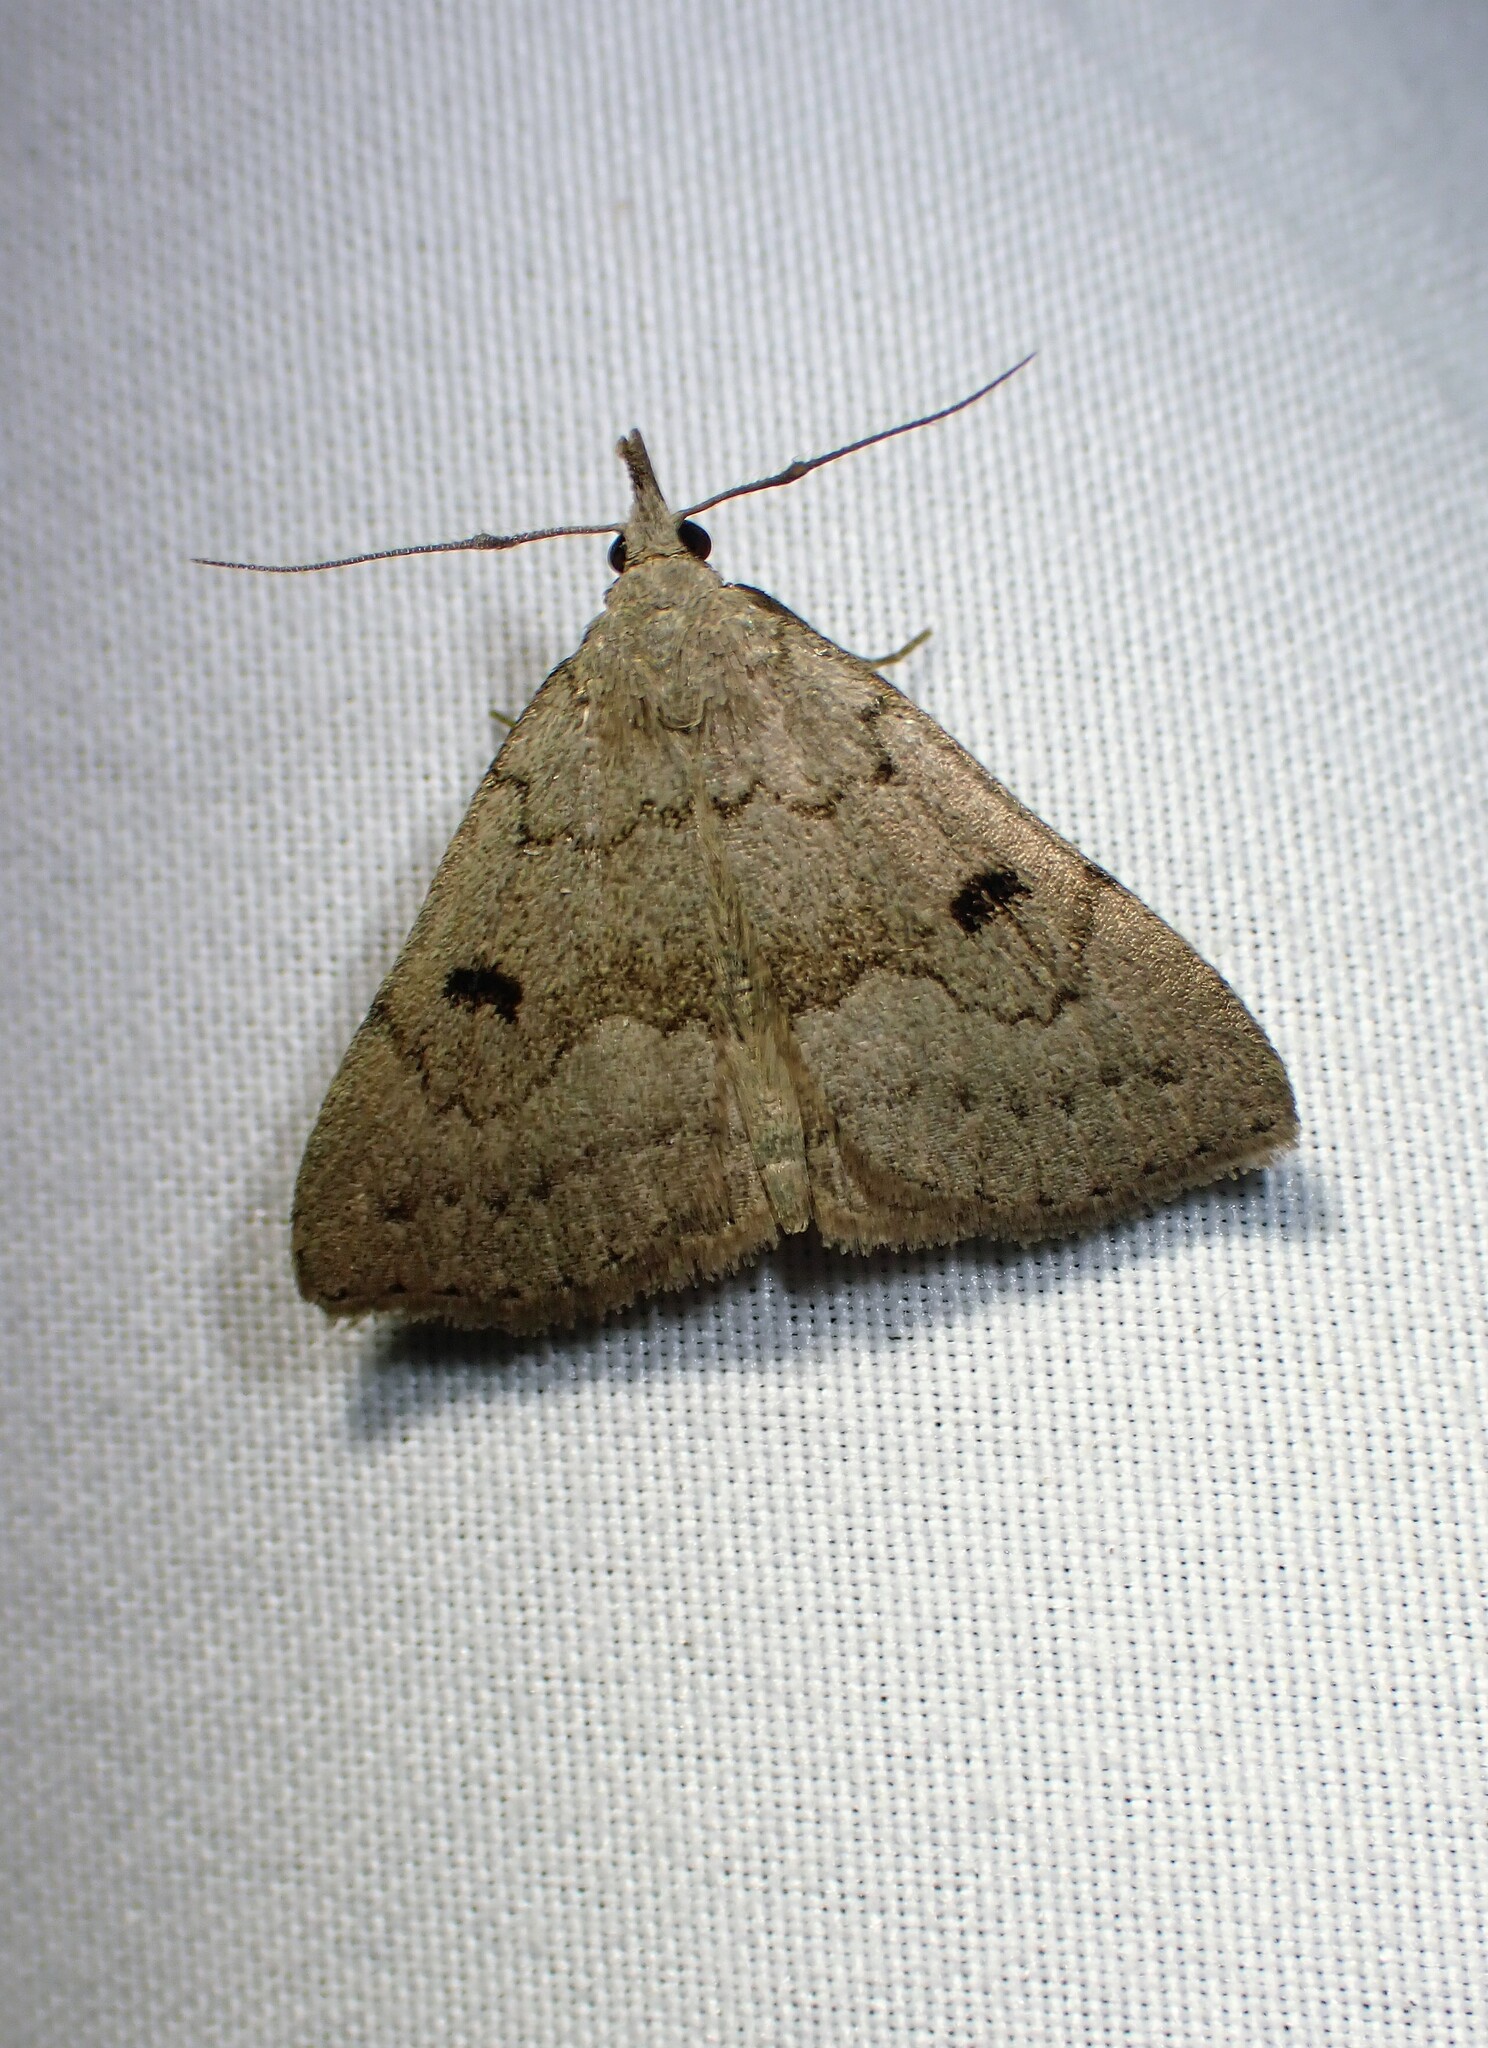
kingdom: Animalia
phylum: Arthropoda
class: Insecta
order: Lepidoptera
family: Erebidae
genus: Macrochilo
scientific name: Macrochilo morbidalis
